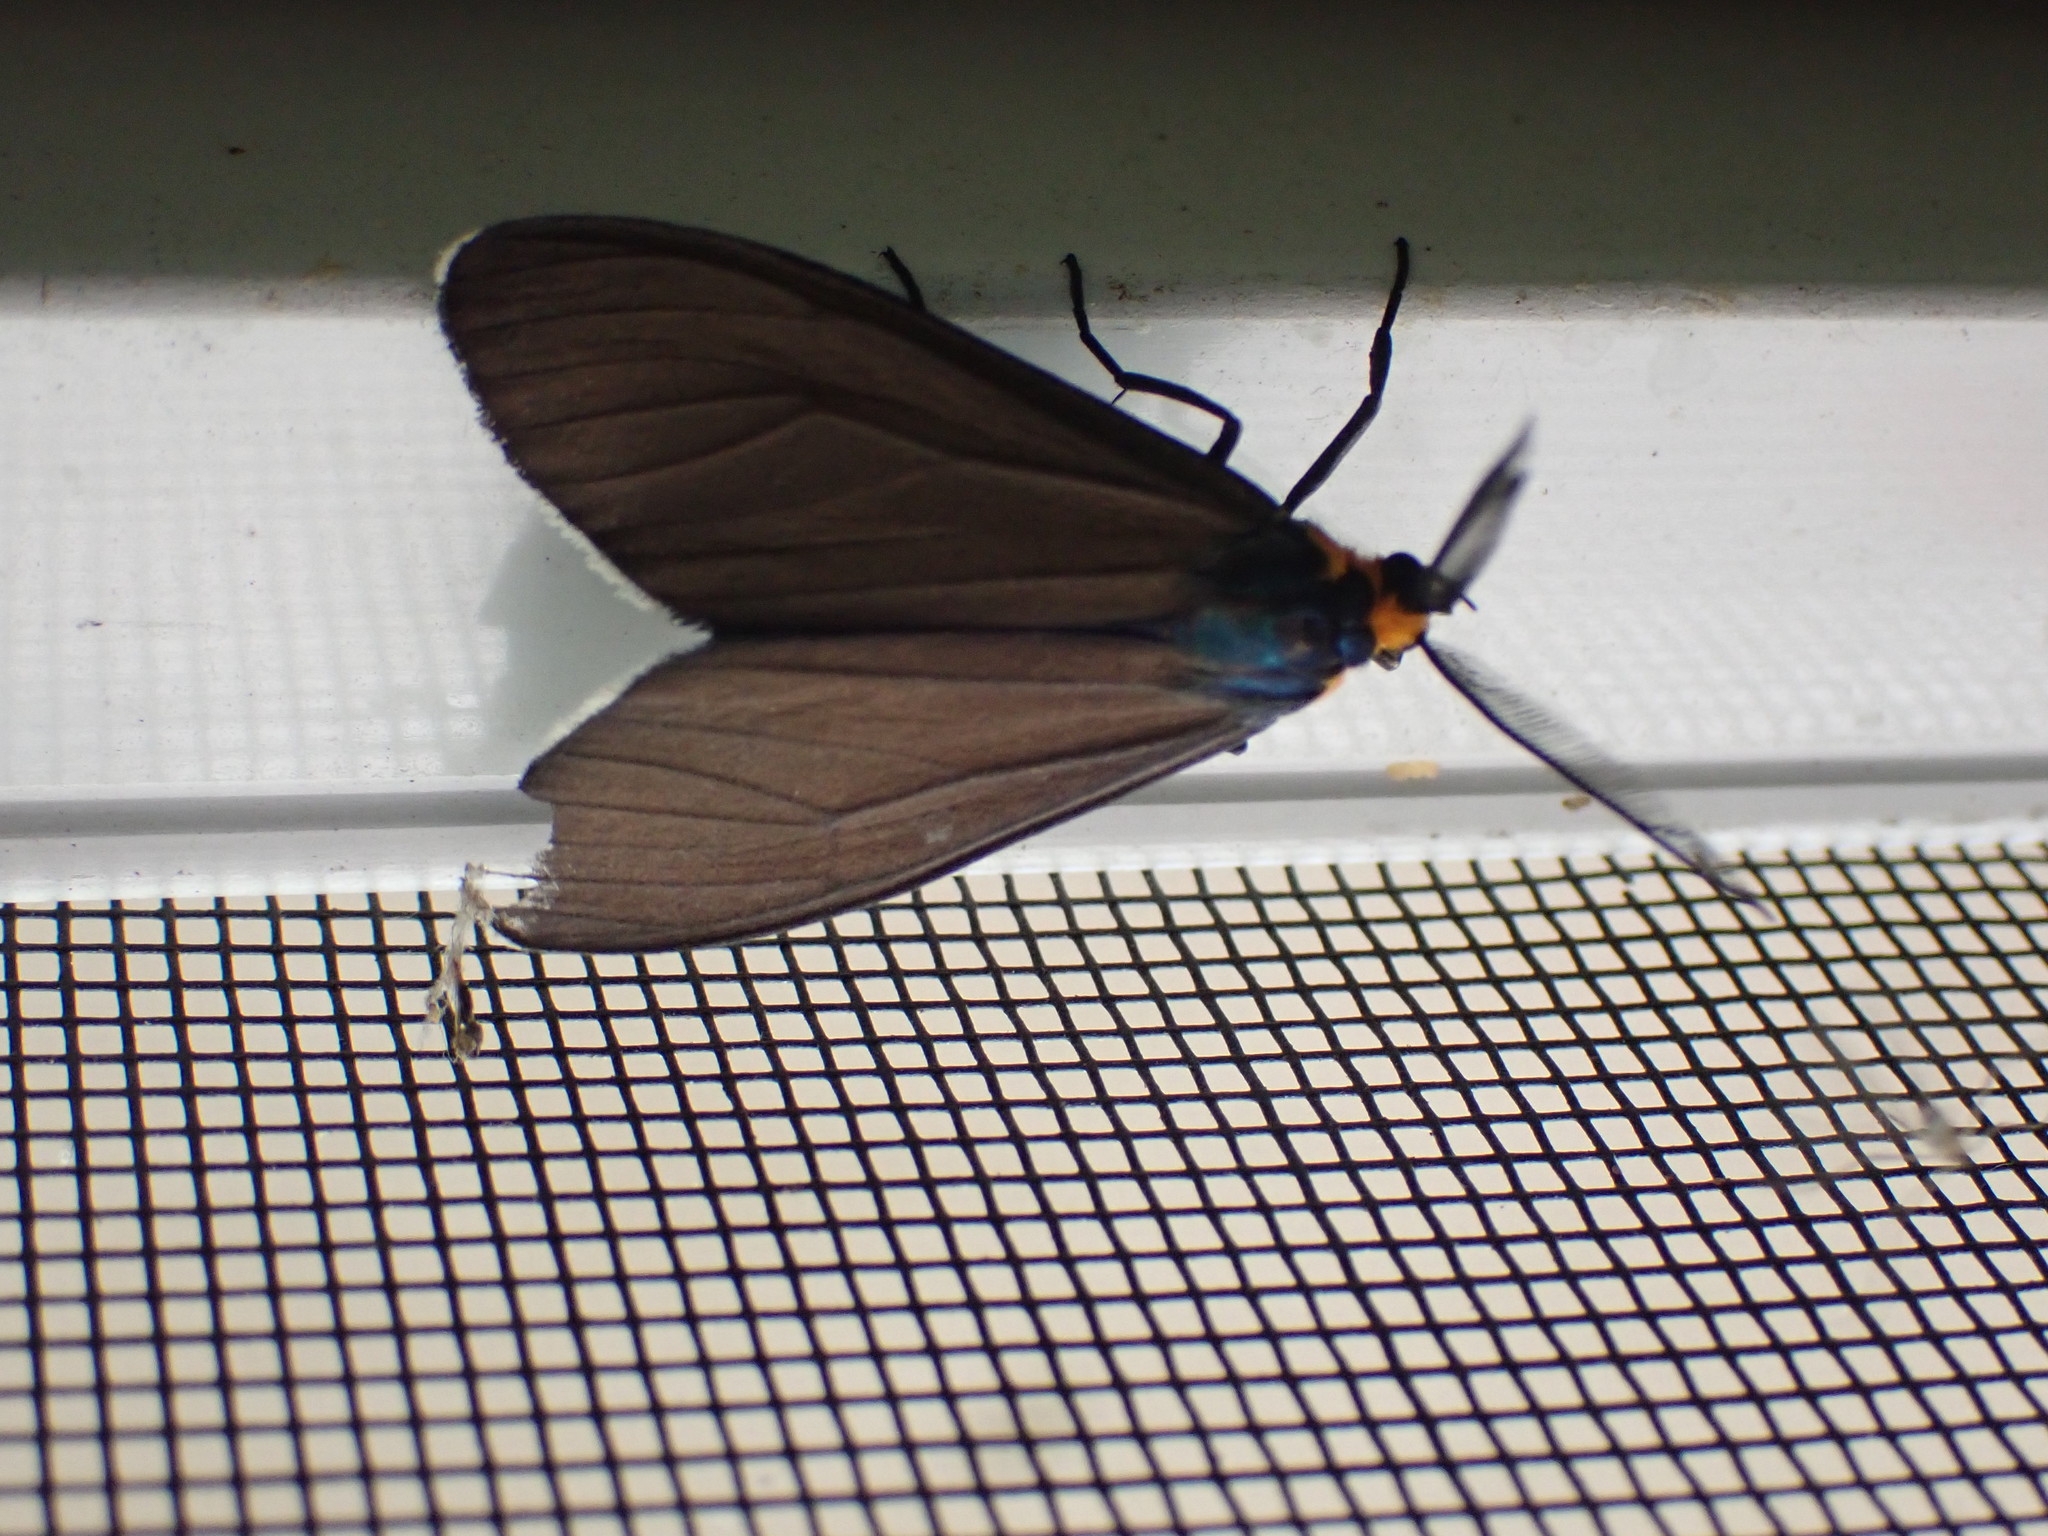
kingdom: Animalia
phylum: Arthropoda
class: Insecta
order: Lepidoptera
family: Erebidae
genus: Ctenucha
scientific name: Ctenucha virginica
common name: Virginia ctenucha moth
